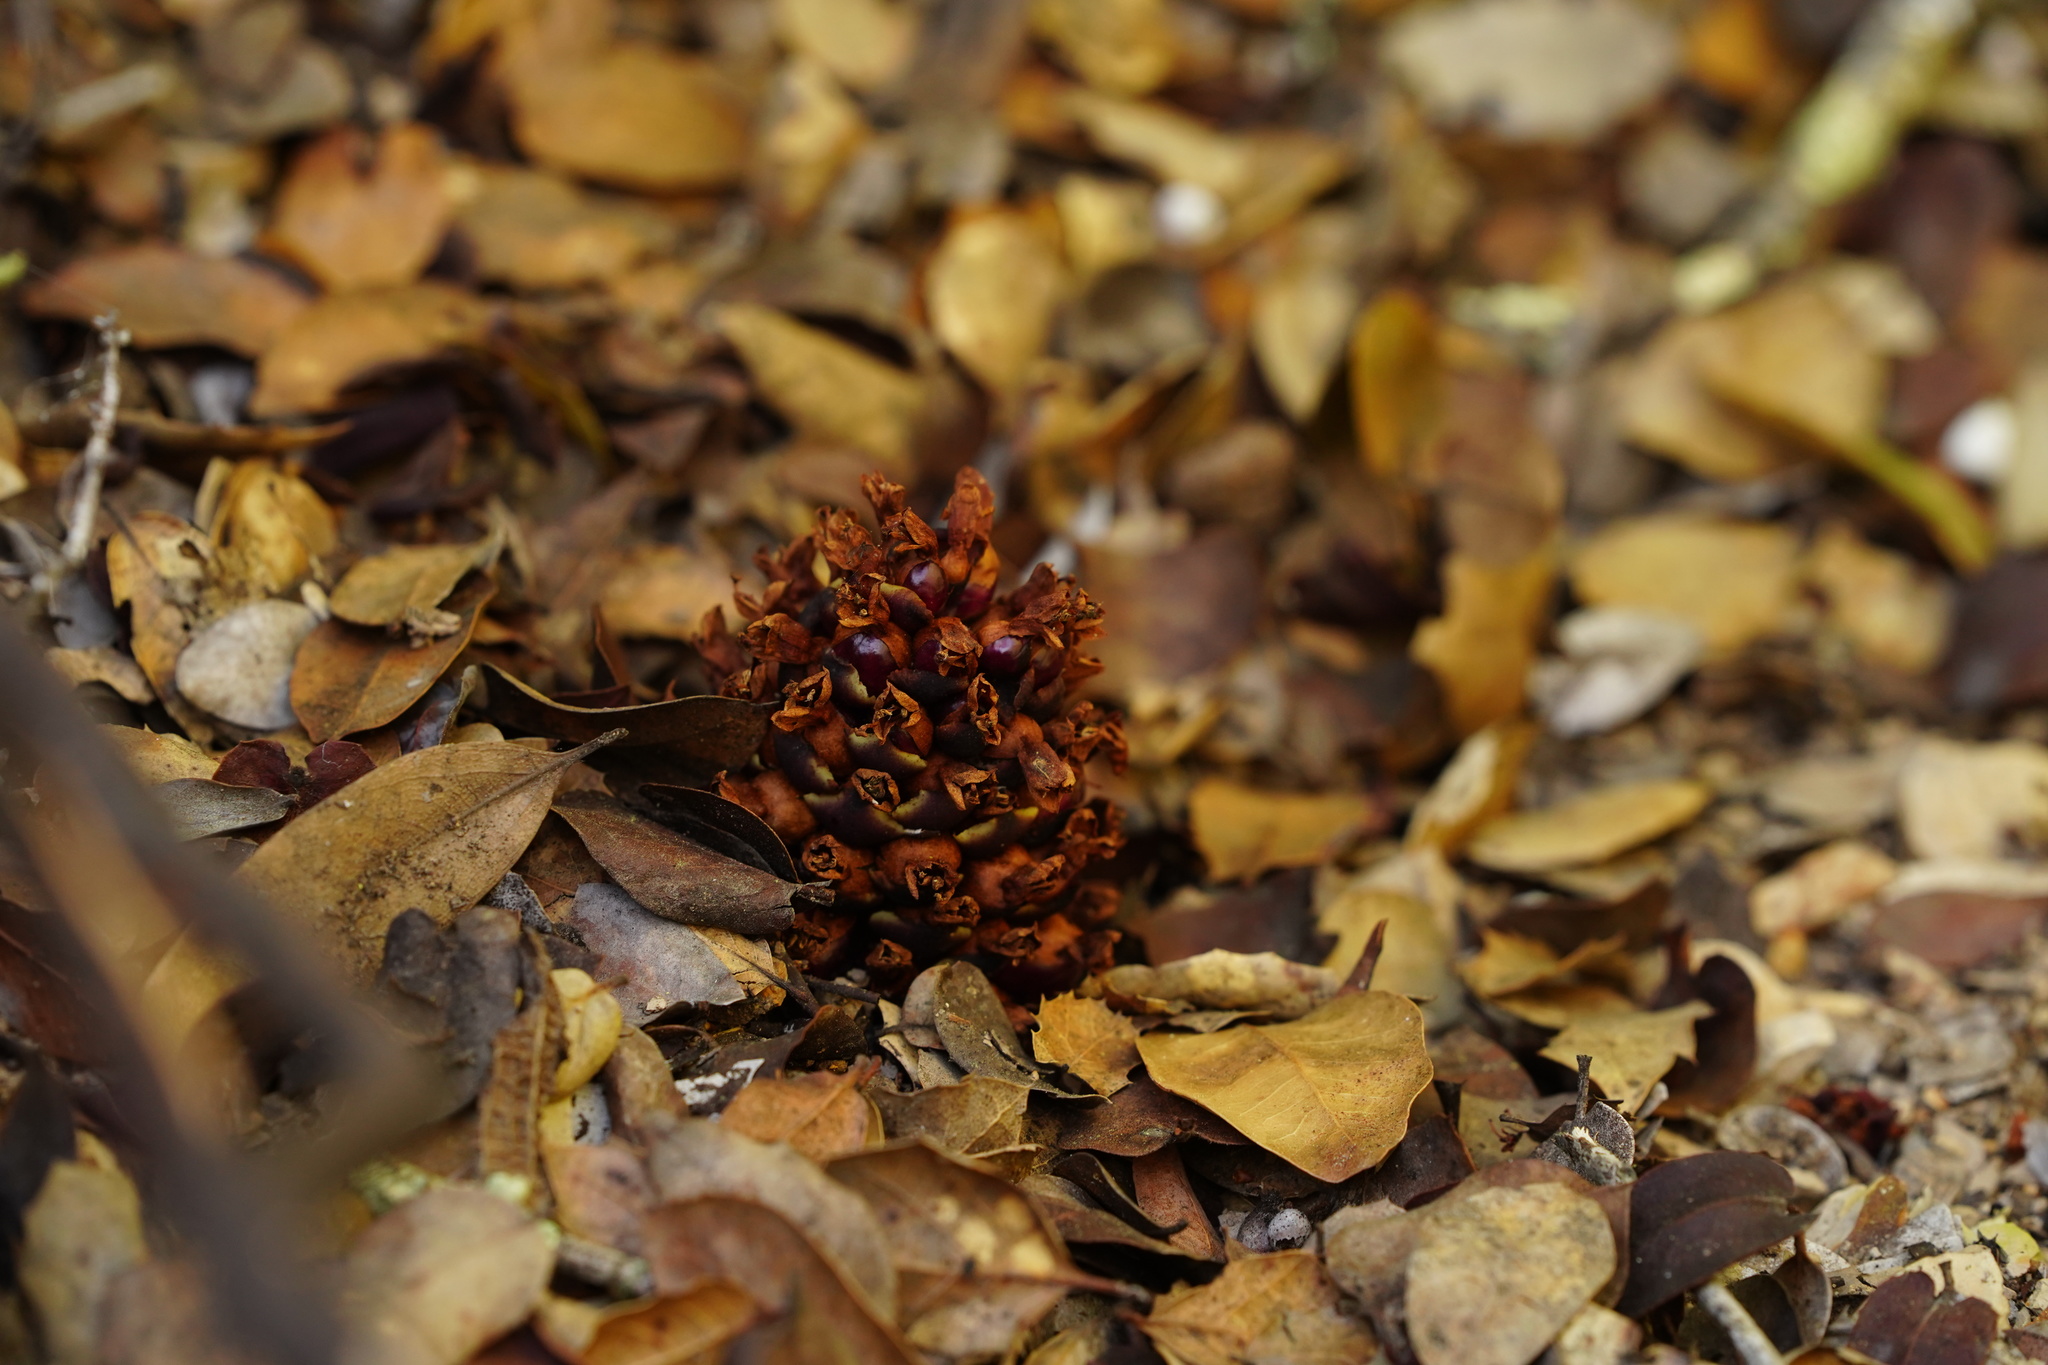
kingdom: Plantae
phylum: Tracheophyta
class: Magnoliopsida
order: Lamiales
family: Orobanchaceae
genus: Kopsiopsis
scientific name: Kopsiopsis strobilacea
